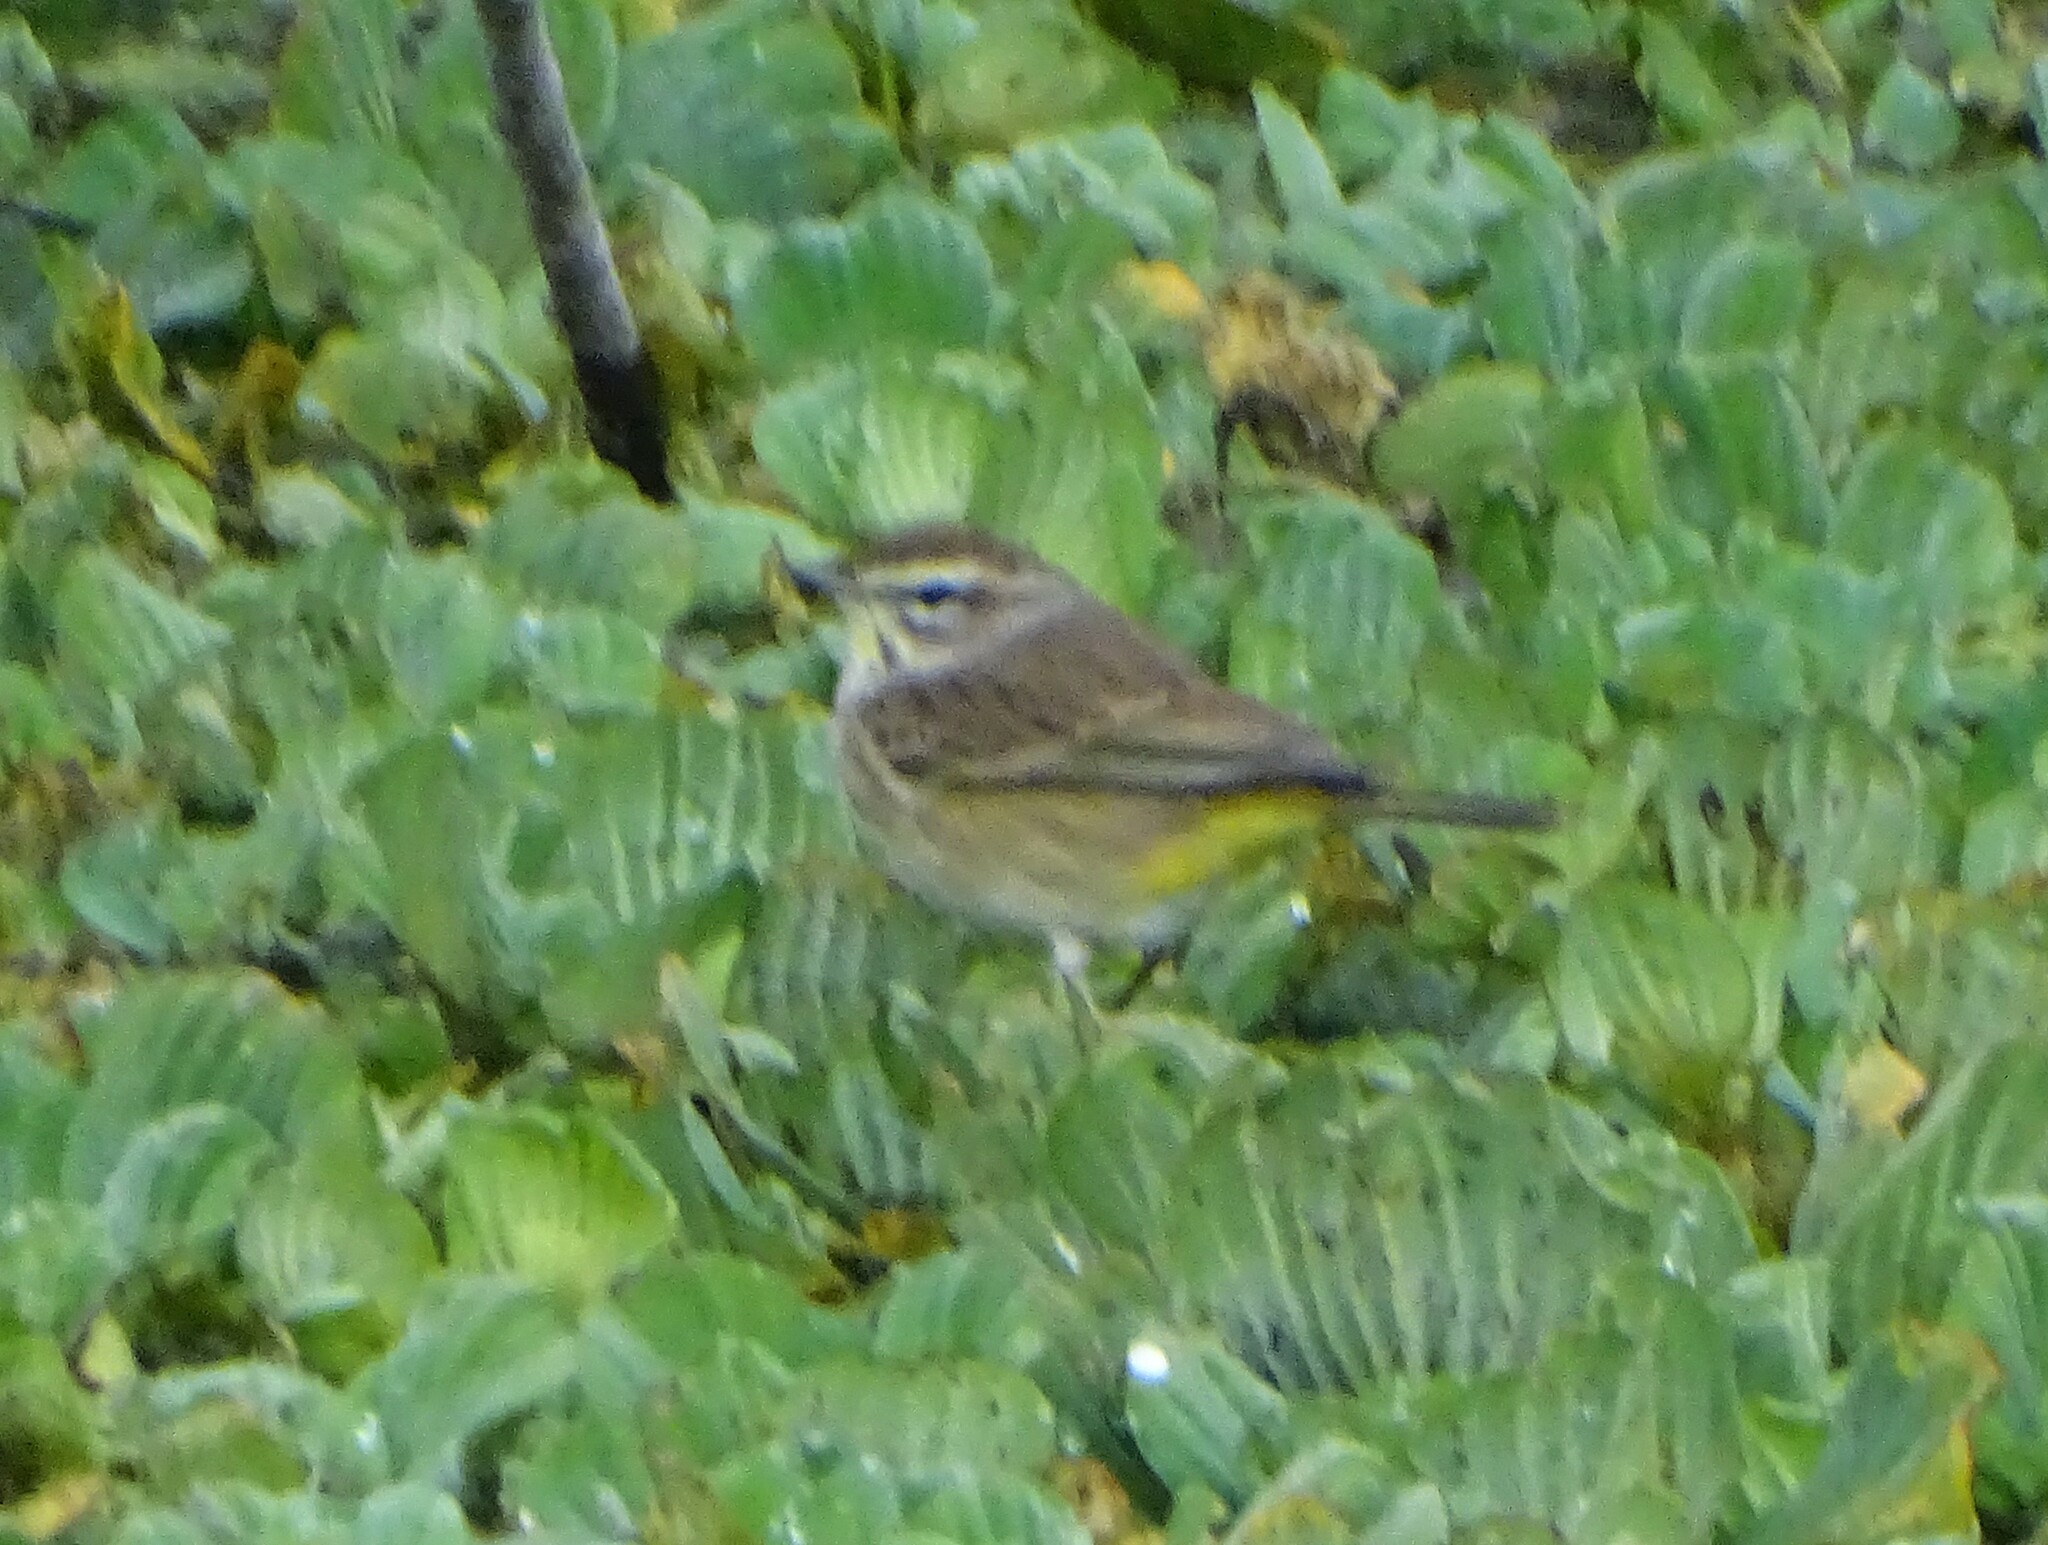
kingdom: Animalia
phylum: Chordata
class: Aves
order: Passeriformes
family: Parulidae
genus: Setophaga
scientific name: Setophaga palmarum
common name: Palm warbler
